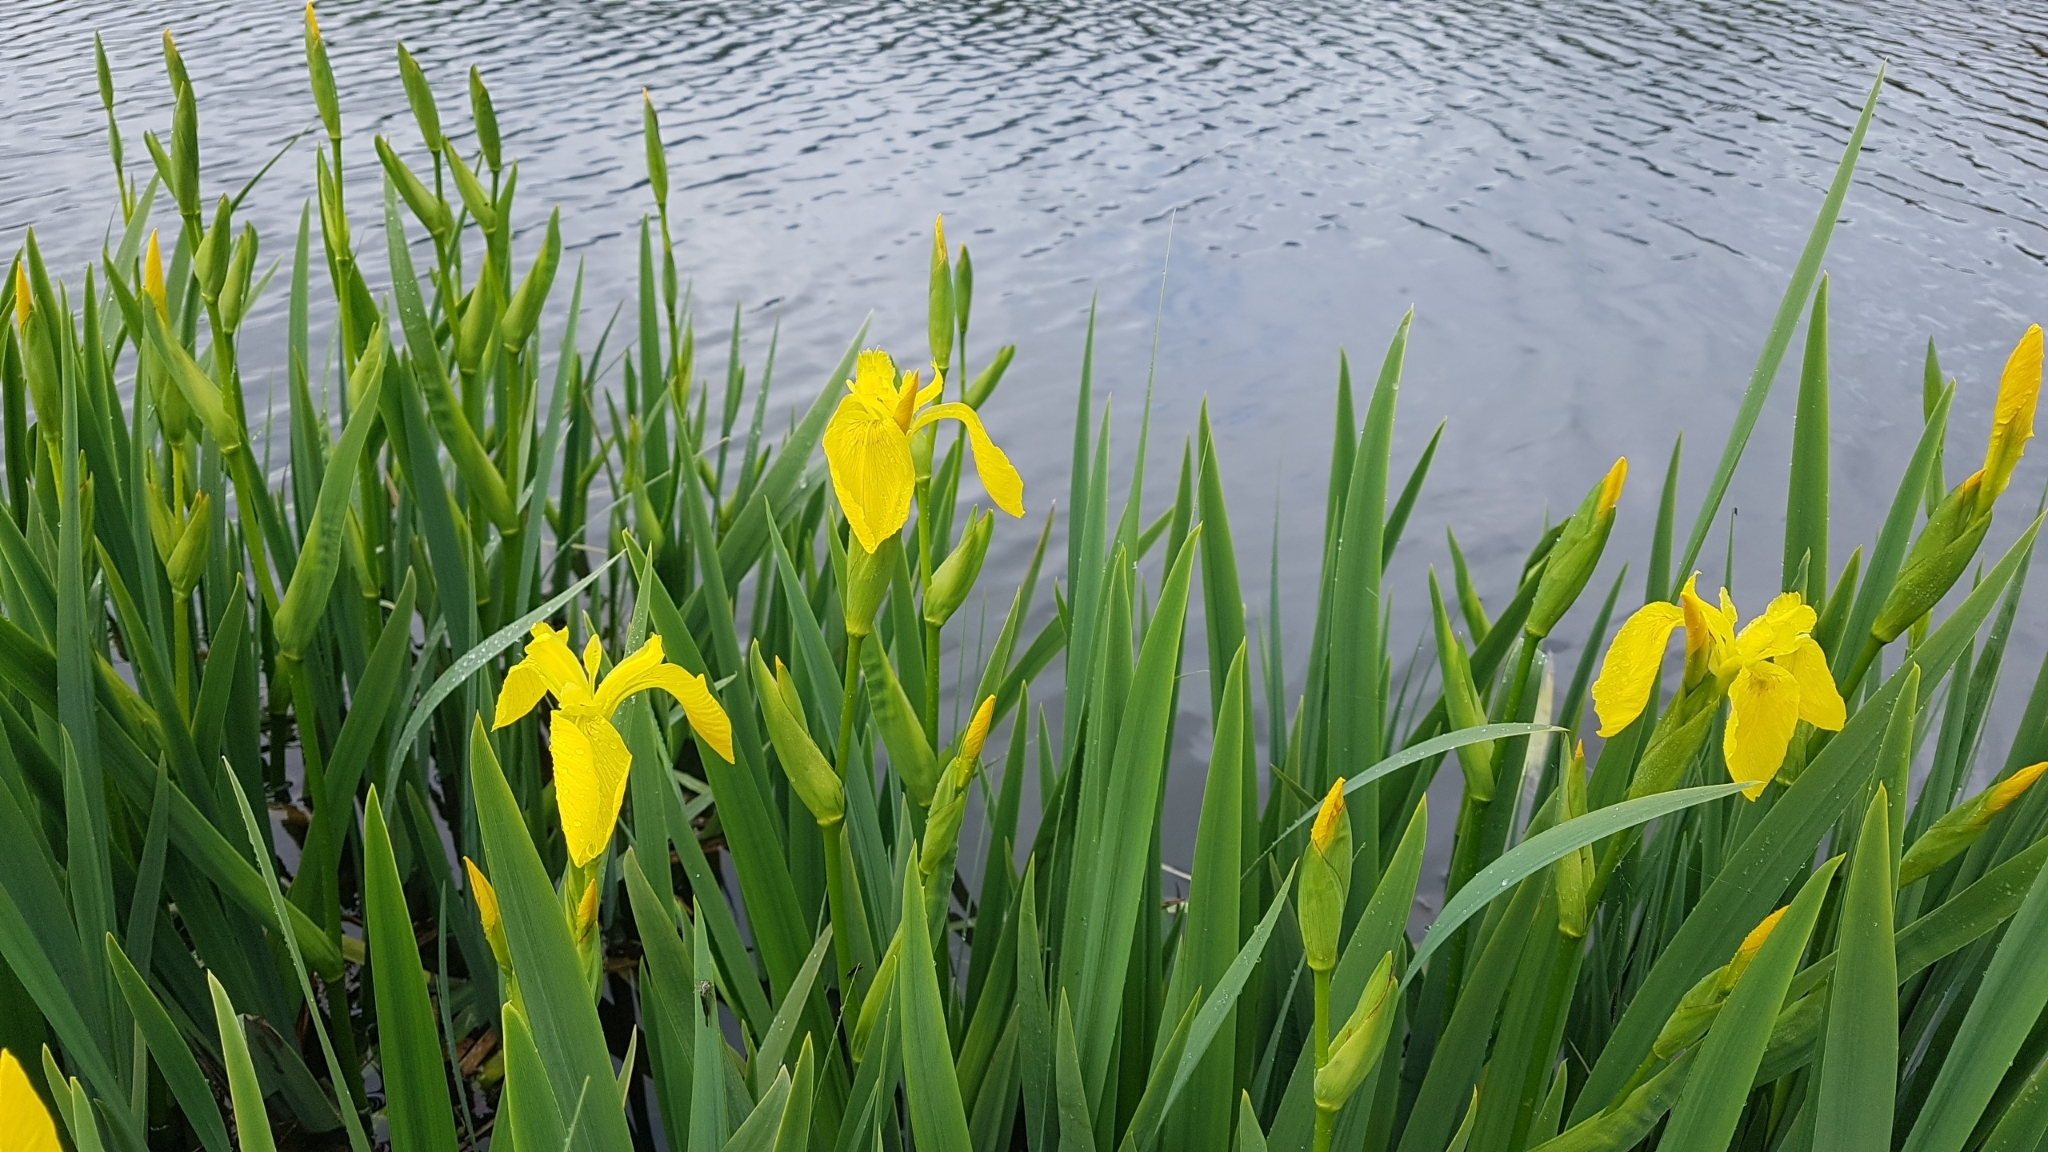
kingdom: Plantae
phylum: Tracheophyta
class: Liliopsida
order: Asparagales
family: Iridaceae
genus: Iris
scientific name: Iris pseudacorus
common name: Yellow flag
